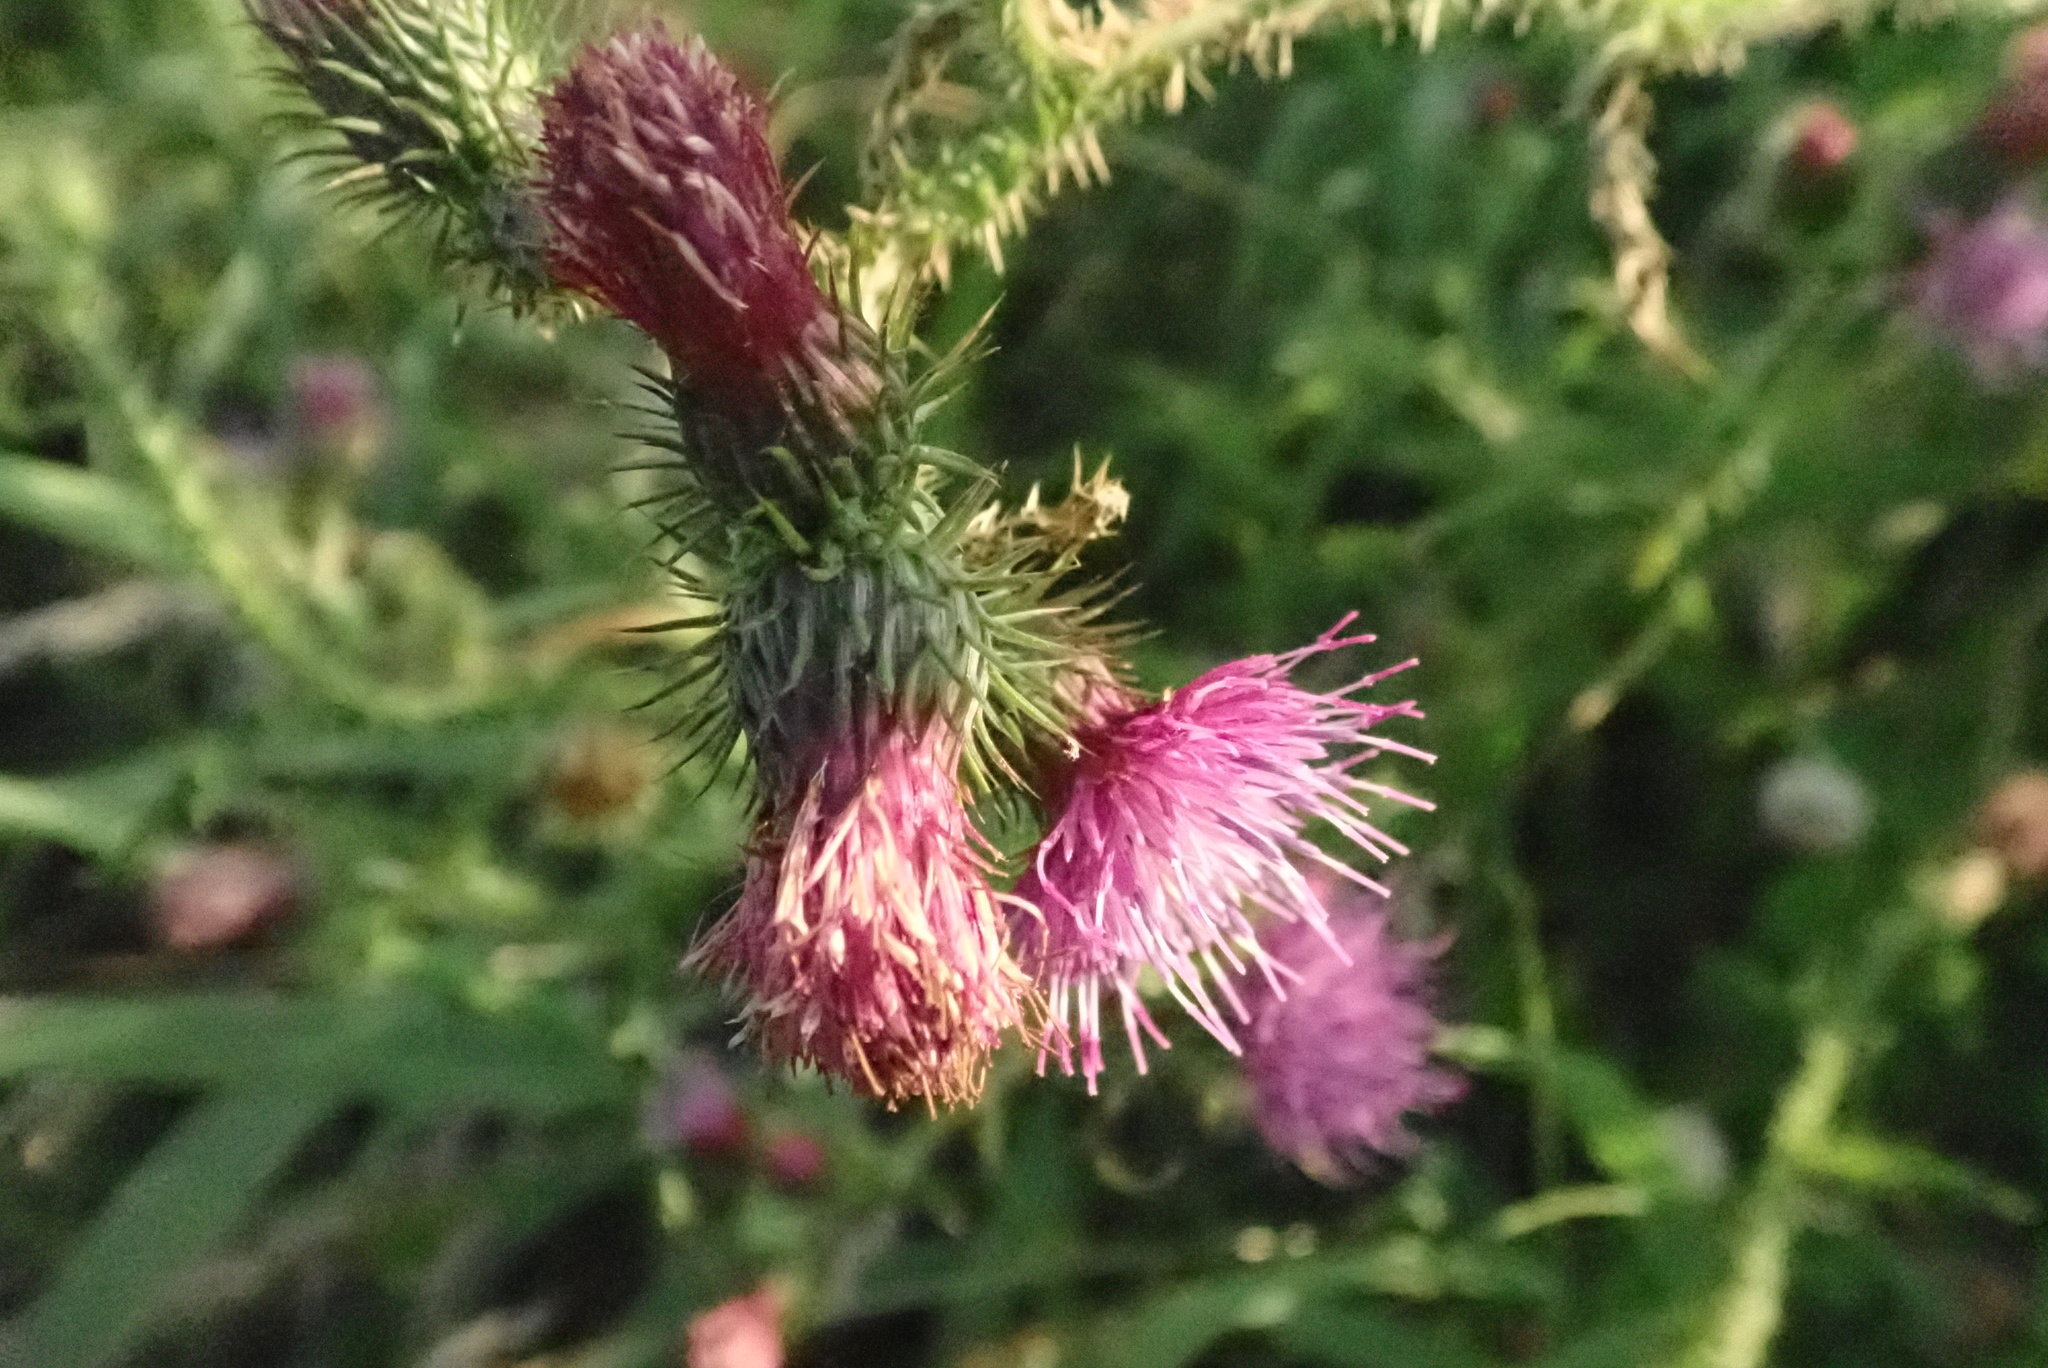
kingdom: Plantae
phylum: Tracheophyta
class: Magnoliopsida
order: Asterales
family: Asteraceae
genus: Carduus
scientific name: Carduus crispus
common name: Welted thistle
